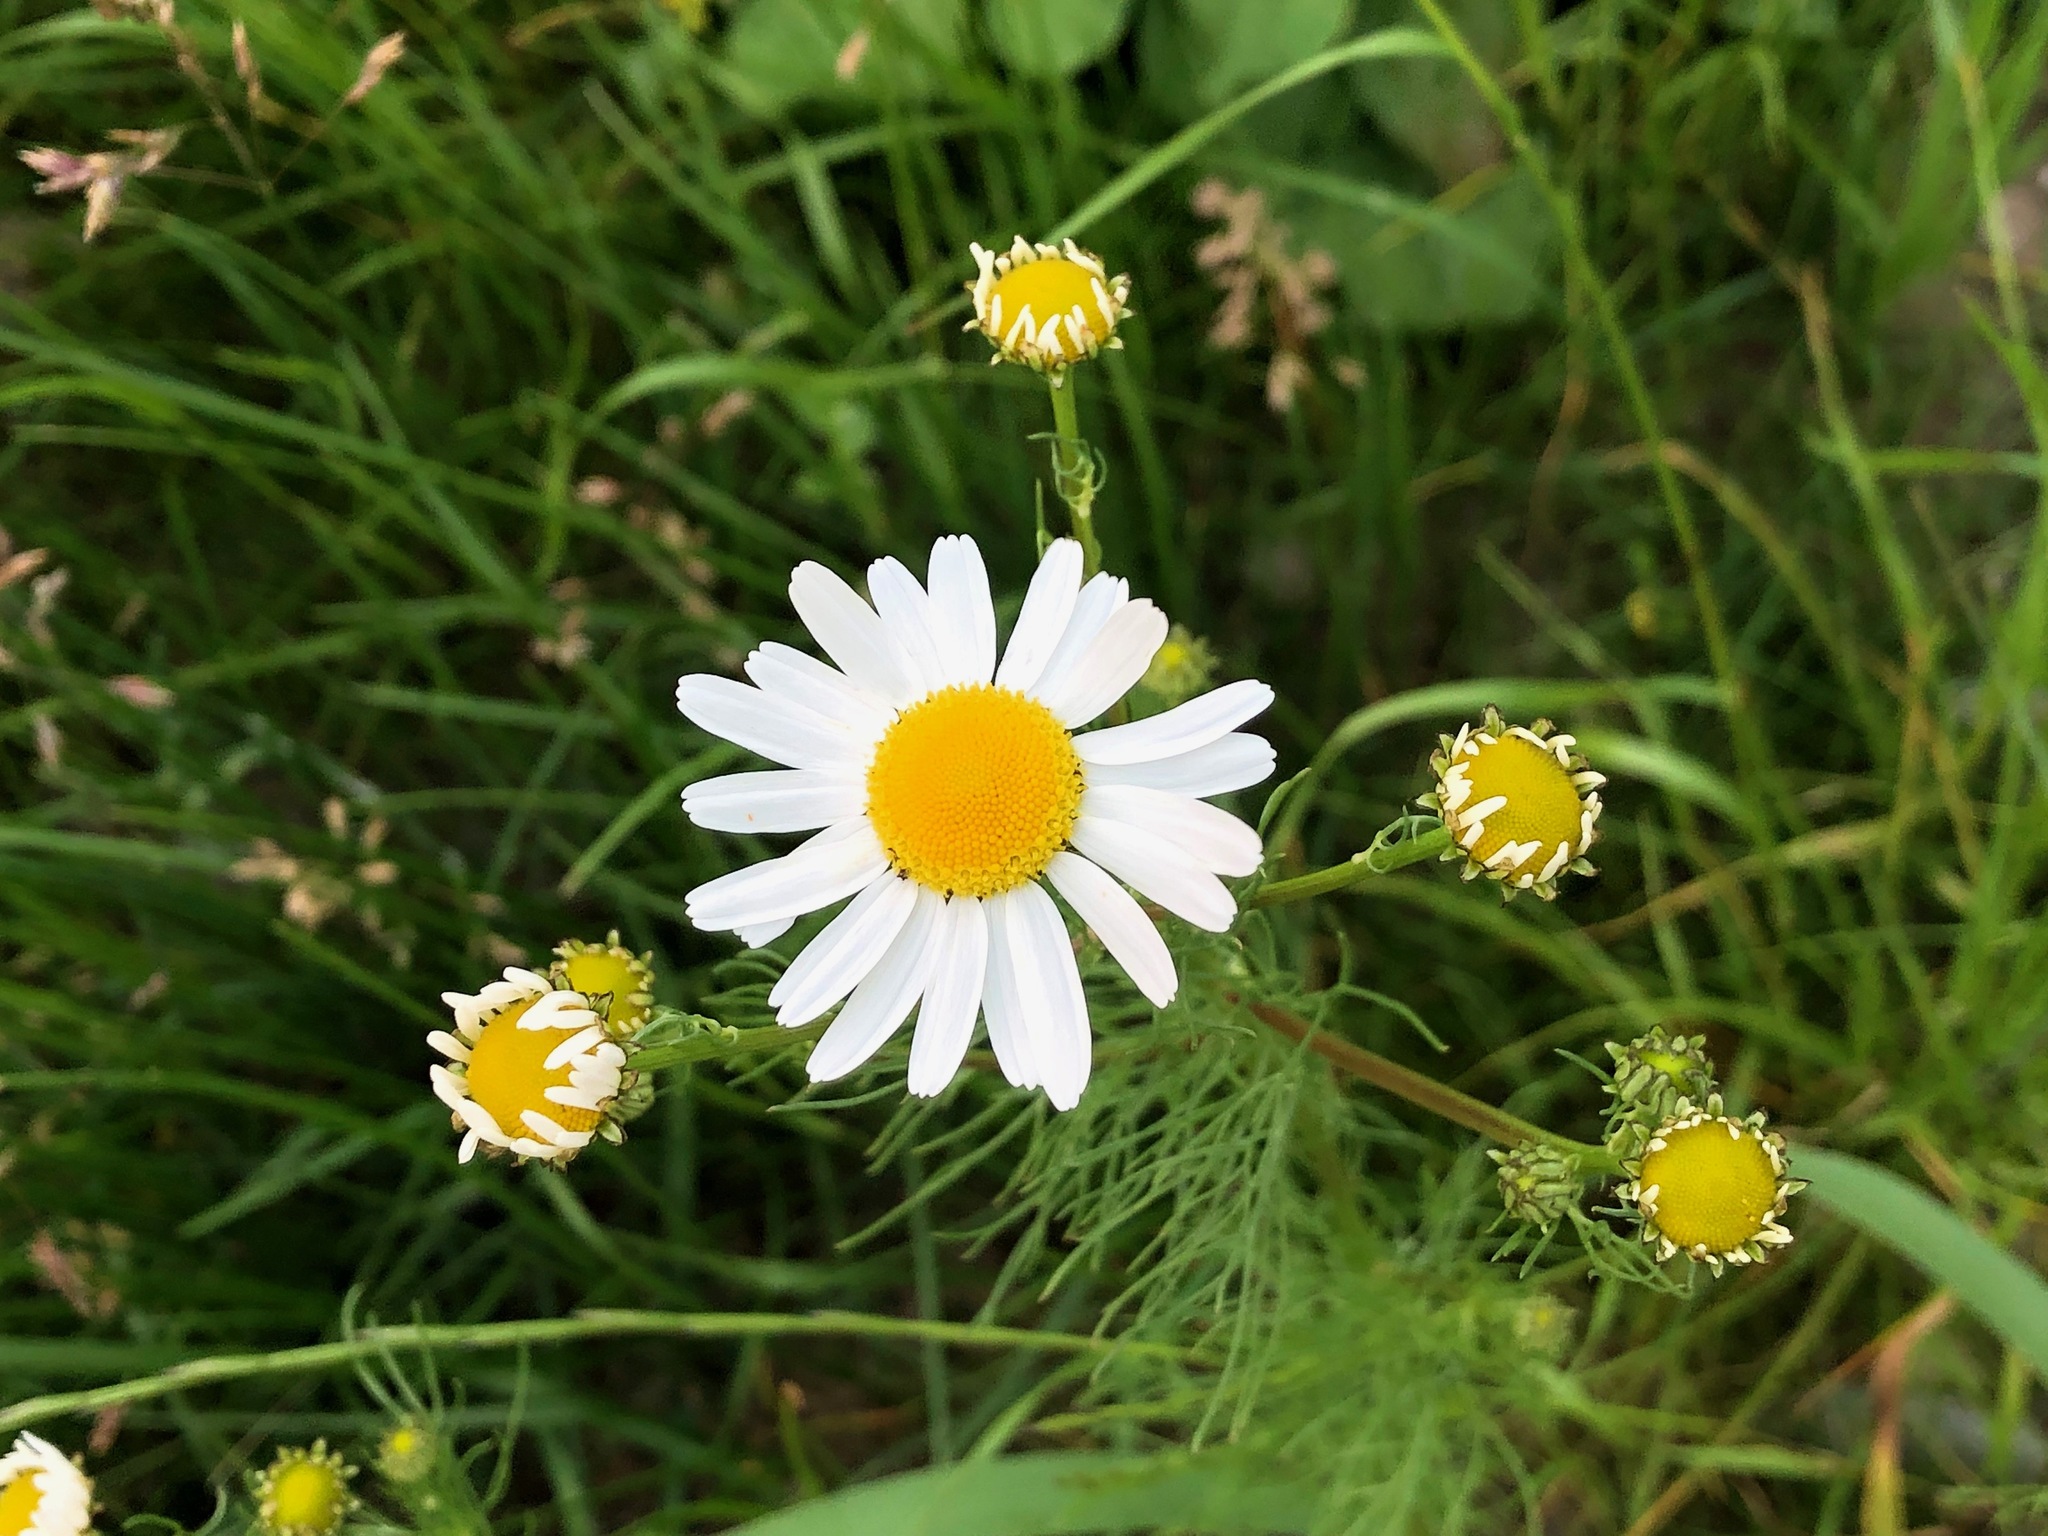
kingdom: Plantae
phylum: Tracheophyta
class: Magnoliopsida
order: Asterales
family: Asteraceae
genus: Tripleurospermum
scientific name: Tripleurospermum inodorum
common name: Scentless mayweed
